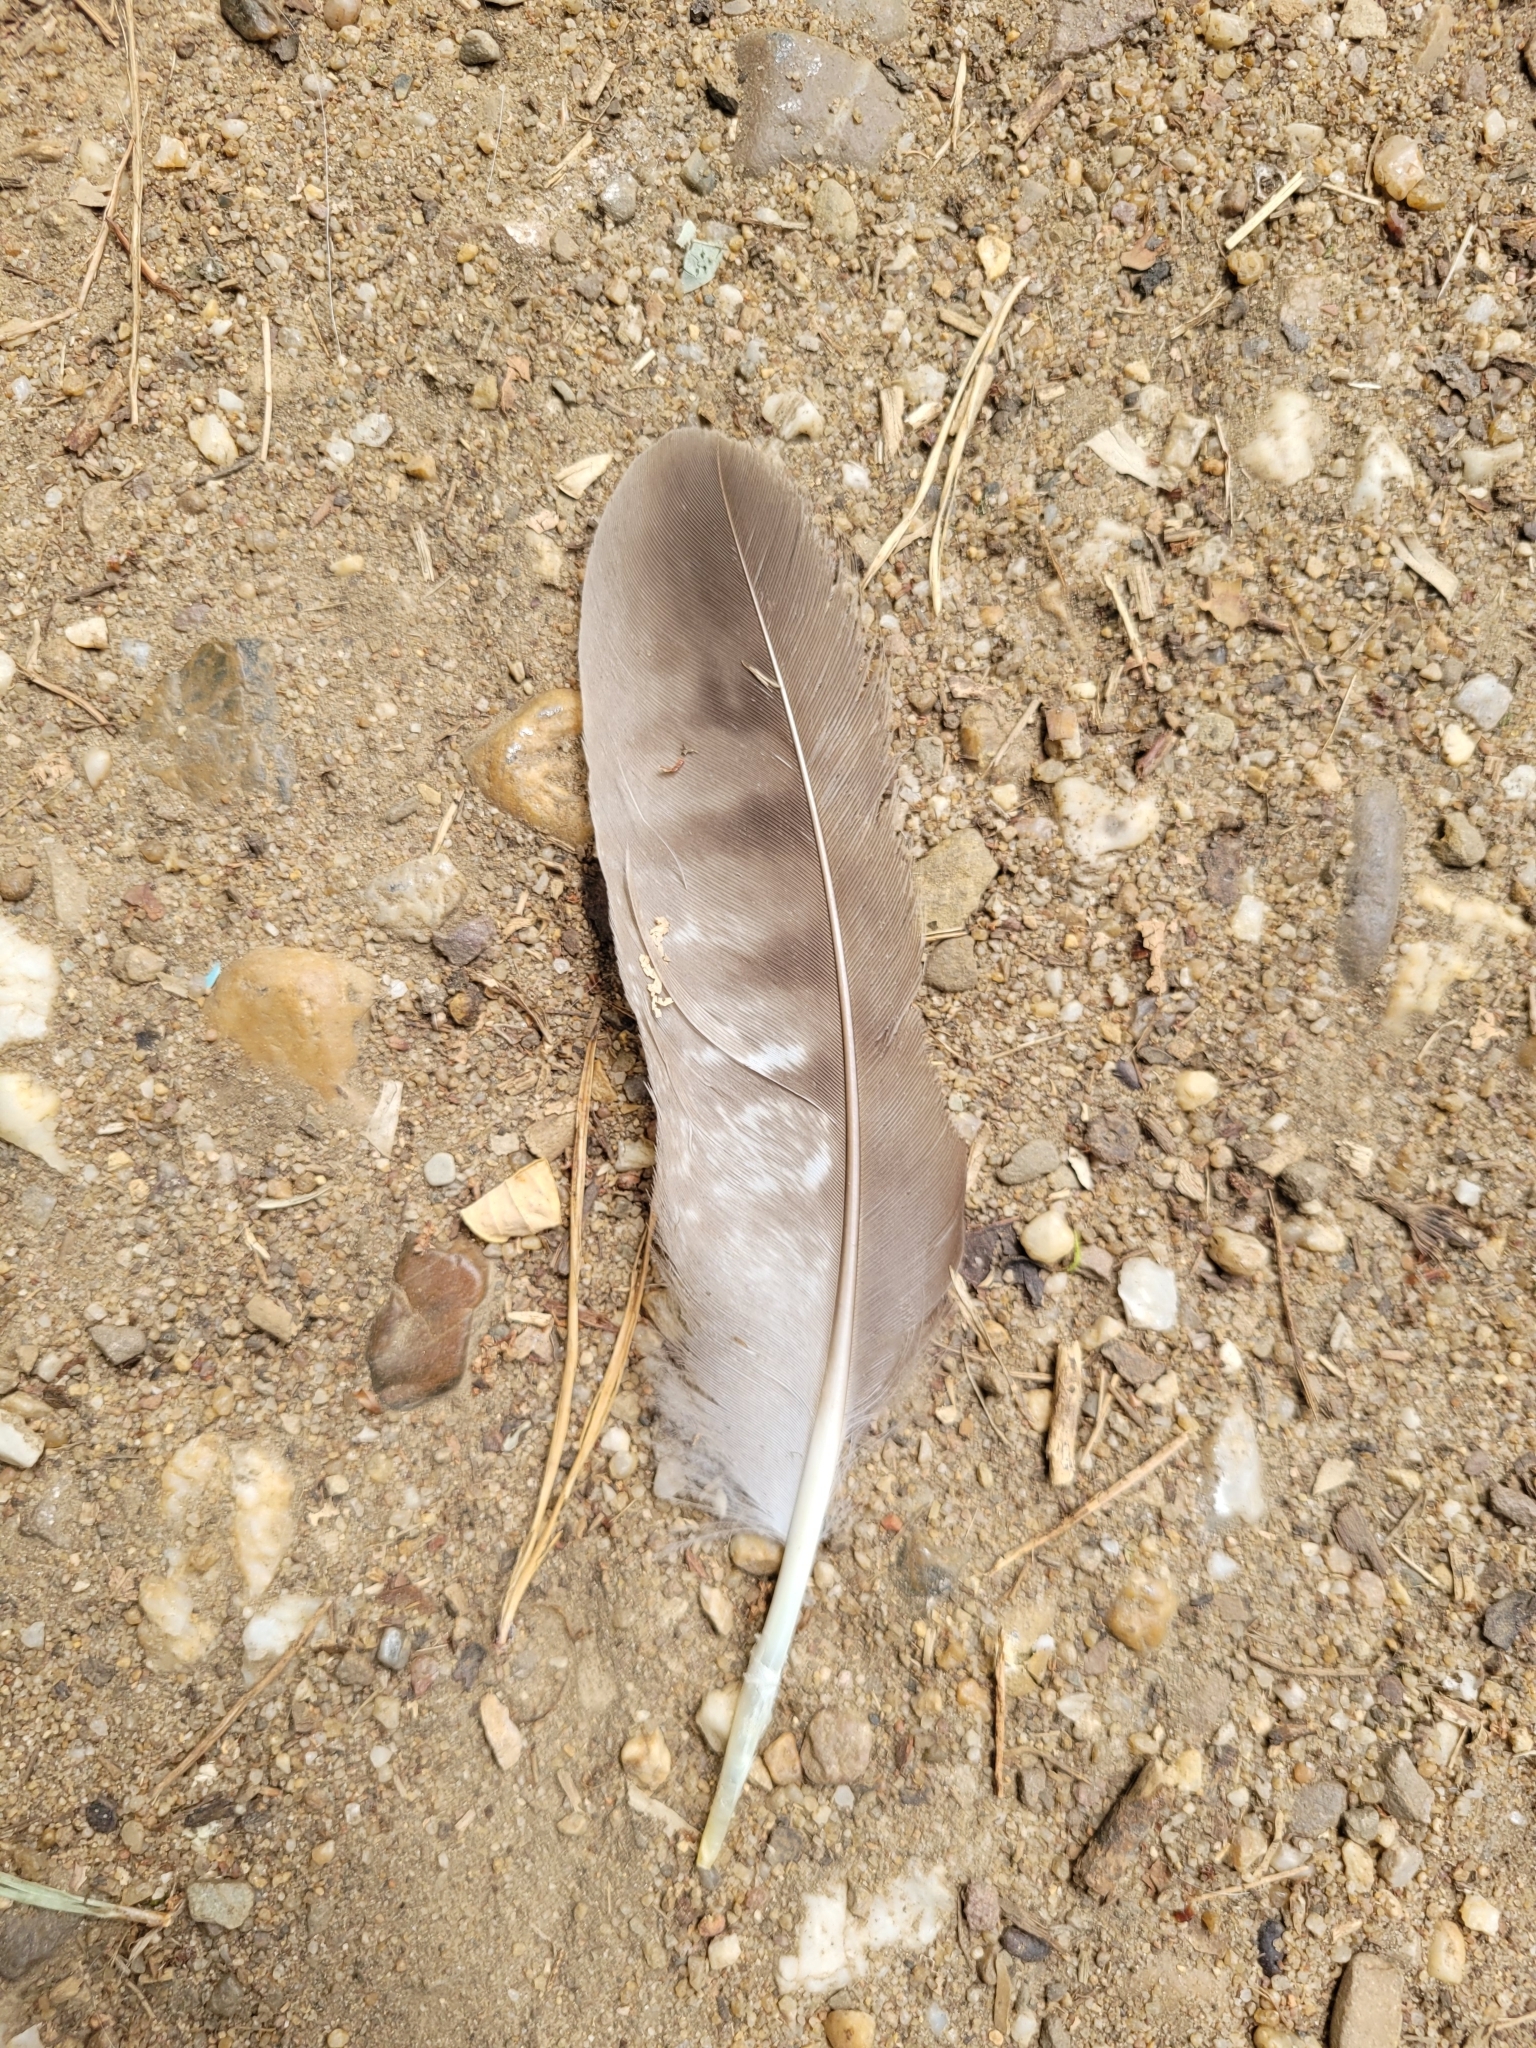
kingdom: Animalia
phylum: Chordata
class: Aves
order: Accipitriformes
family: Accipitridae
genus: Accipiter
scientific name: Accipiter gentilis
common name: Northern goshawk
